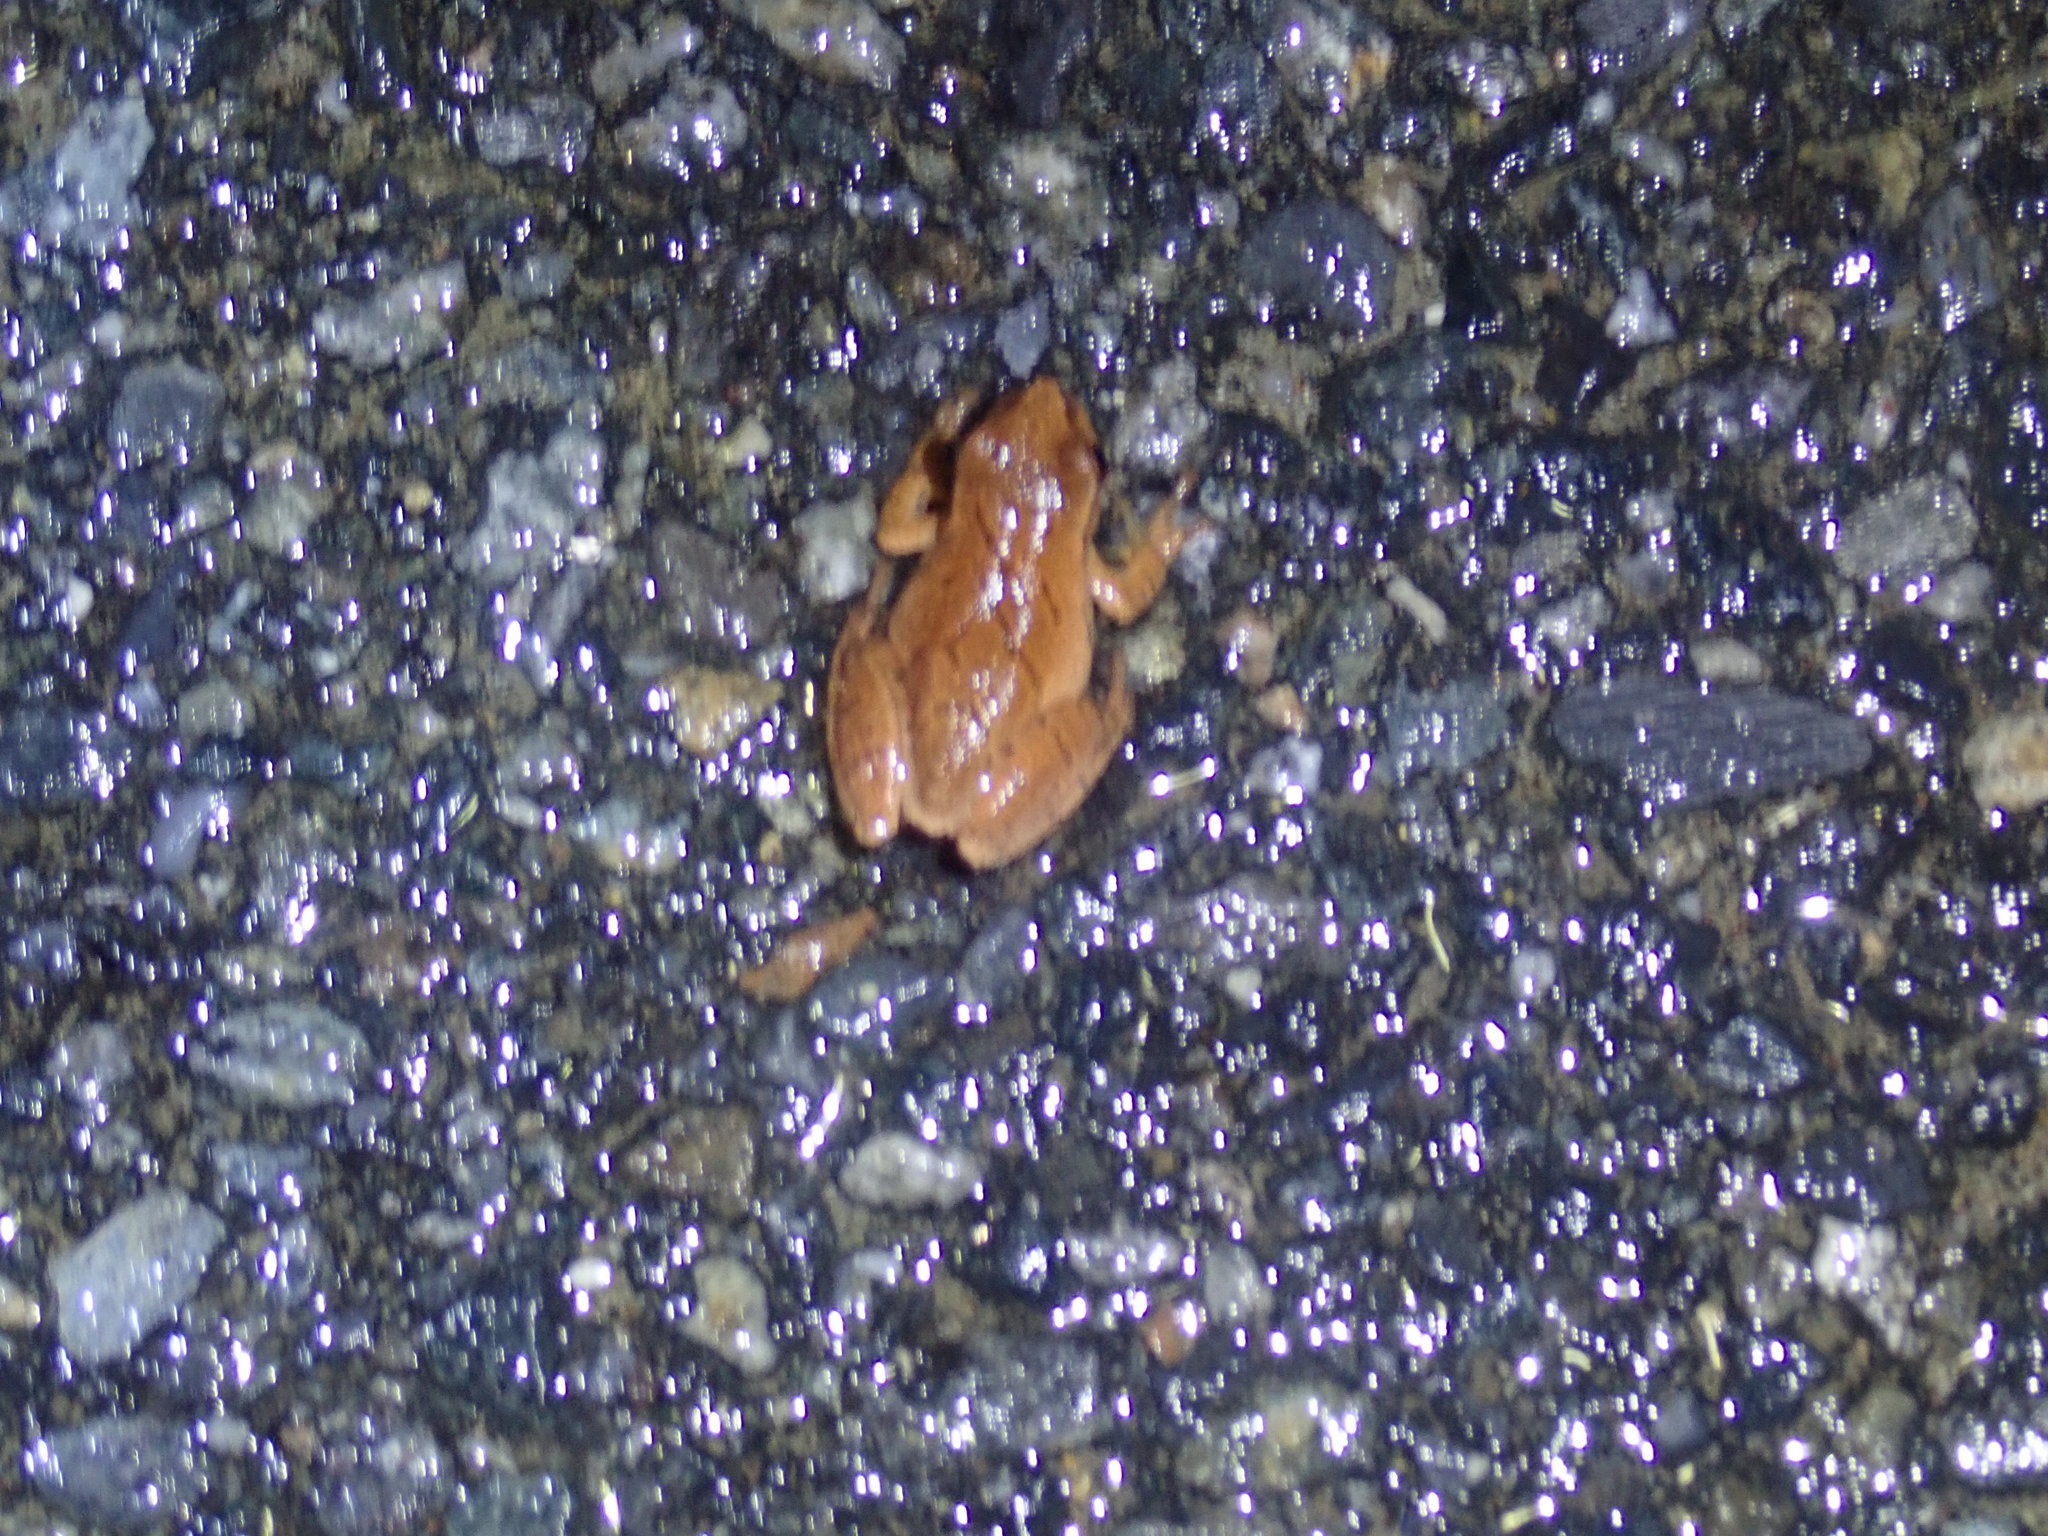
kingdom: Animalia
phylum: Chordata
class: Amphibia
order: Anura
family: Hylidae
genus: Pseudacris
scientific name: Pseudacris crucifer
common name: Spring peeper
